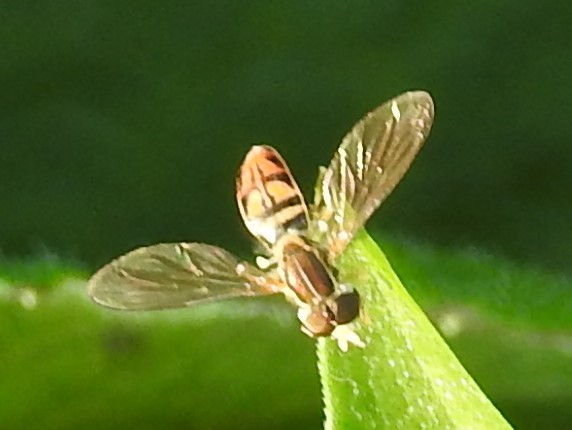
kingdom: Animalia
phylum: Arthropoda
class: Insecta
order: Diptera
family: Syrphidae
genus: Toxomerus
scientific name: Toxomerus marginatus
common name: Syrphid fly
